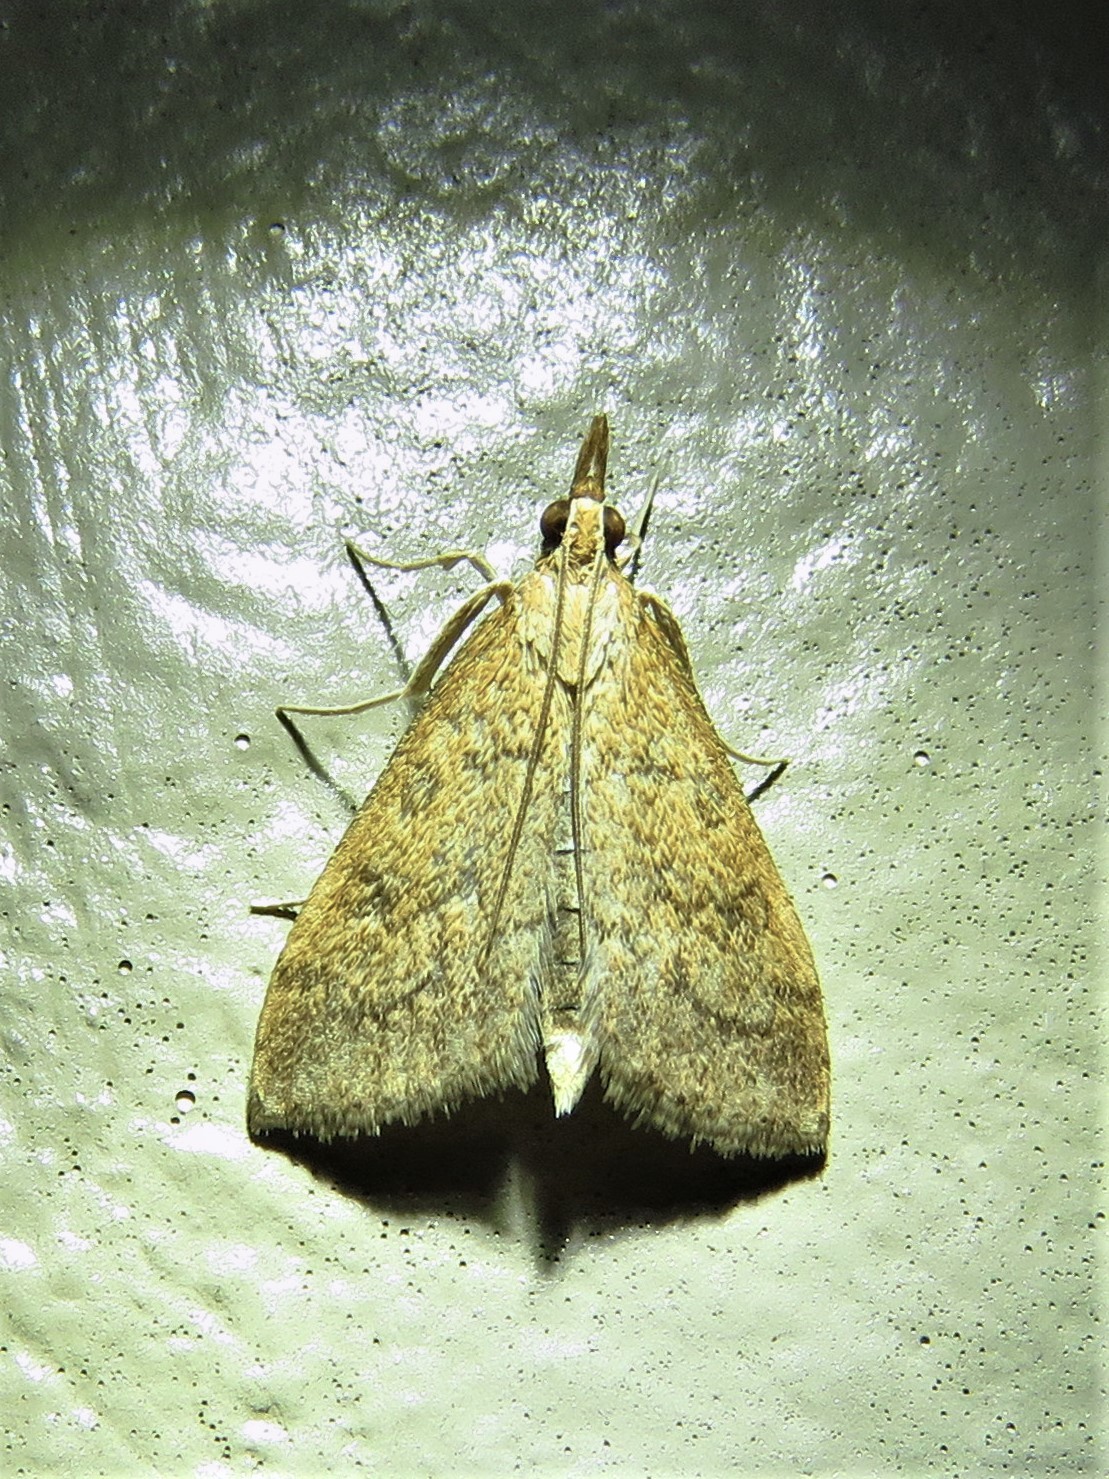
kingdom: Animalia
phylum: Arthropoda
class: Insecta
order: Lepidoptera
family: Crambidae
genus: Udea
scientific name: Udea rubigalis
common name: Celery leaftier moth
